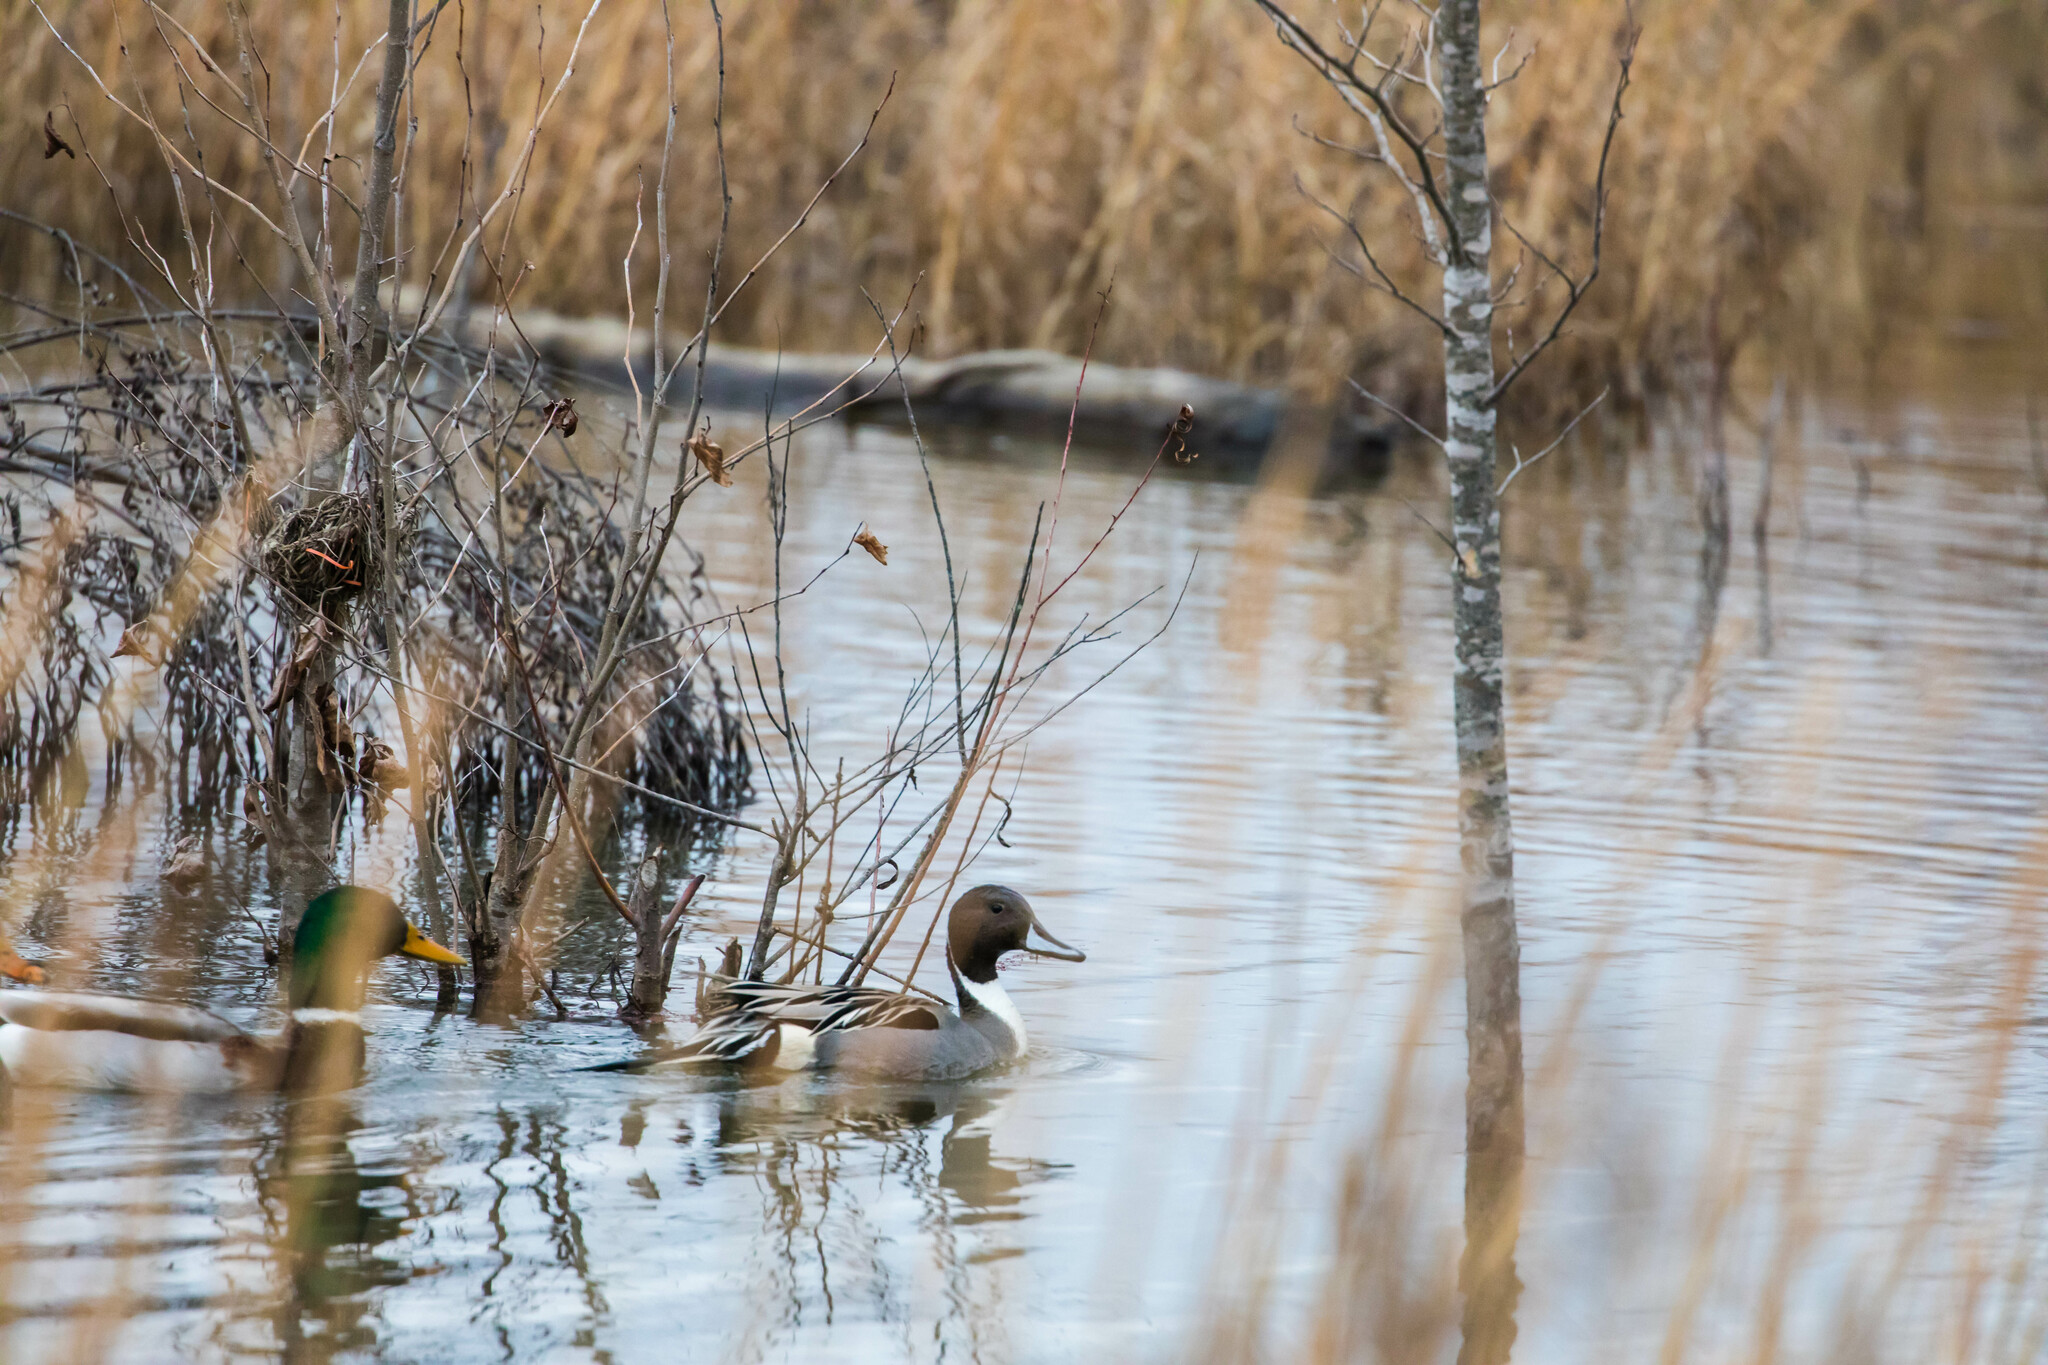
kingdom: Animalia
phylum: Chordata
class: Aves
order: Anseriformes
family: Anatidae
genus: Anas
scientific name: Anas acuta
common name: Northern pintail
